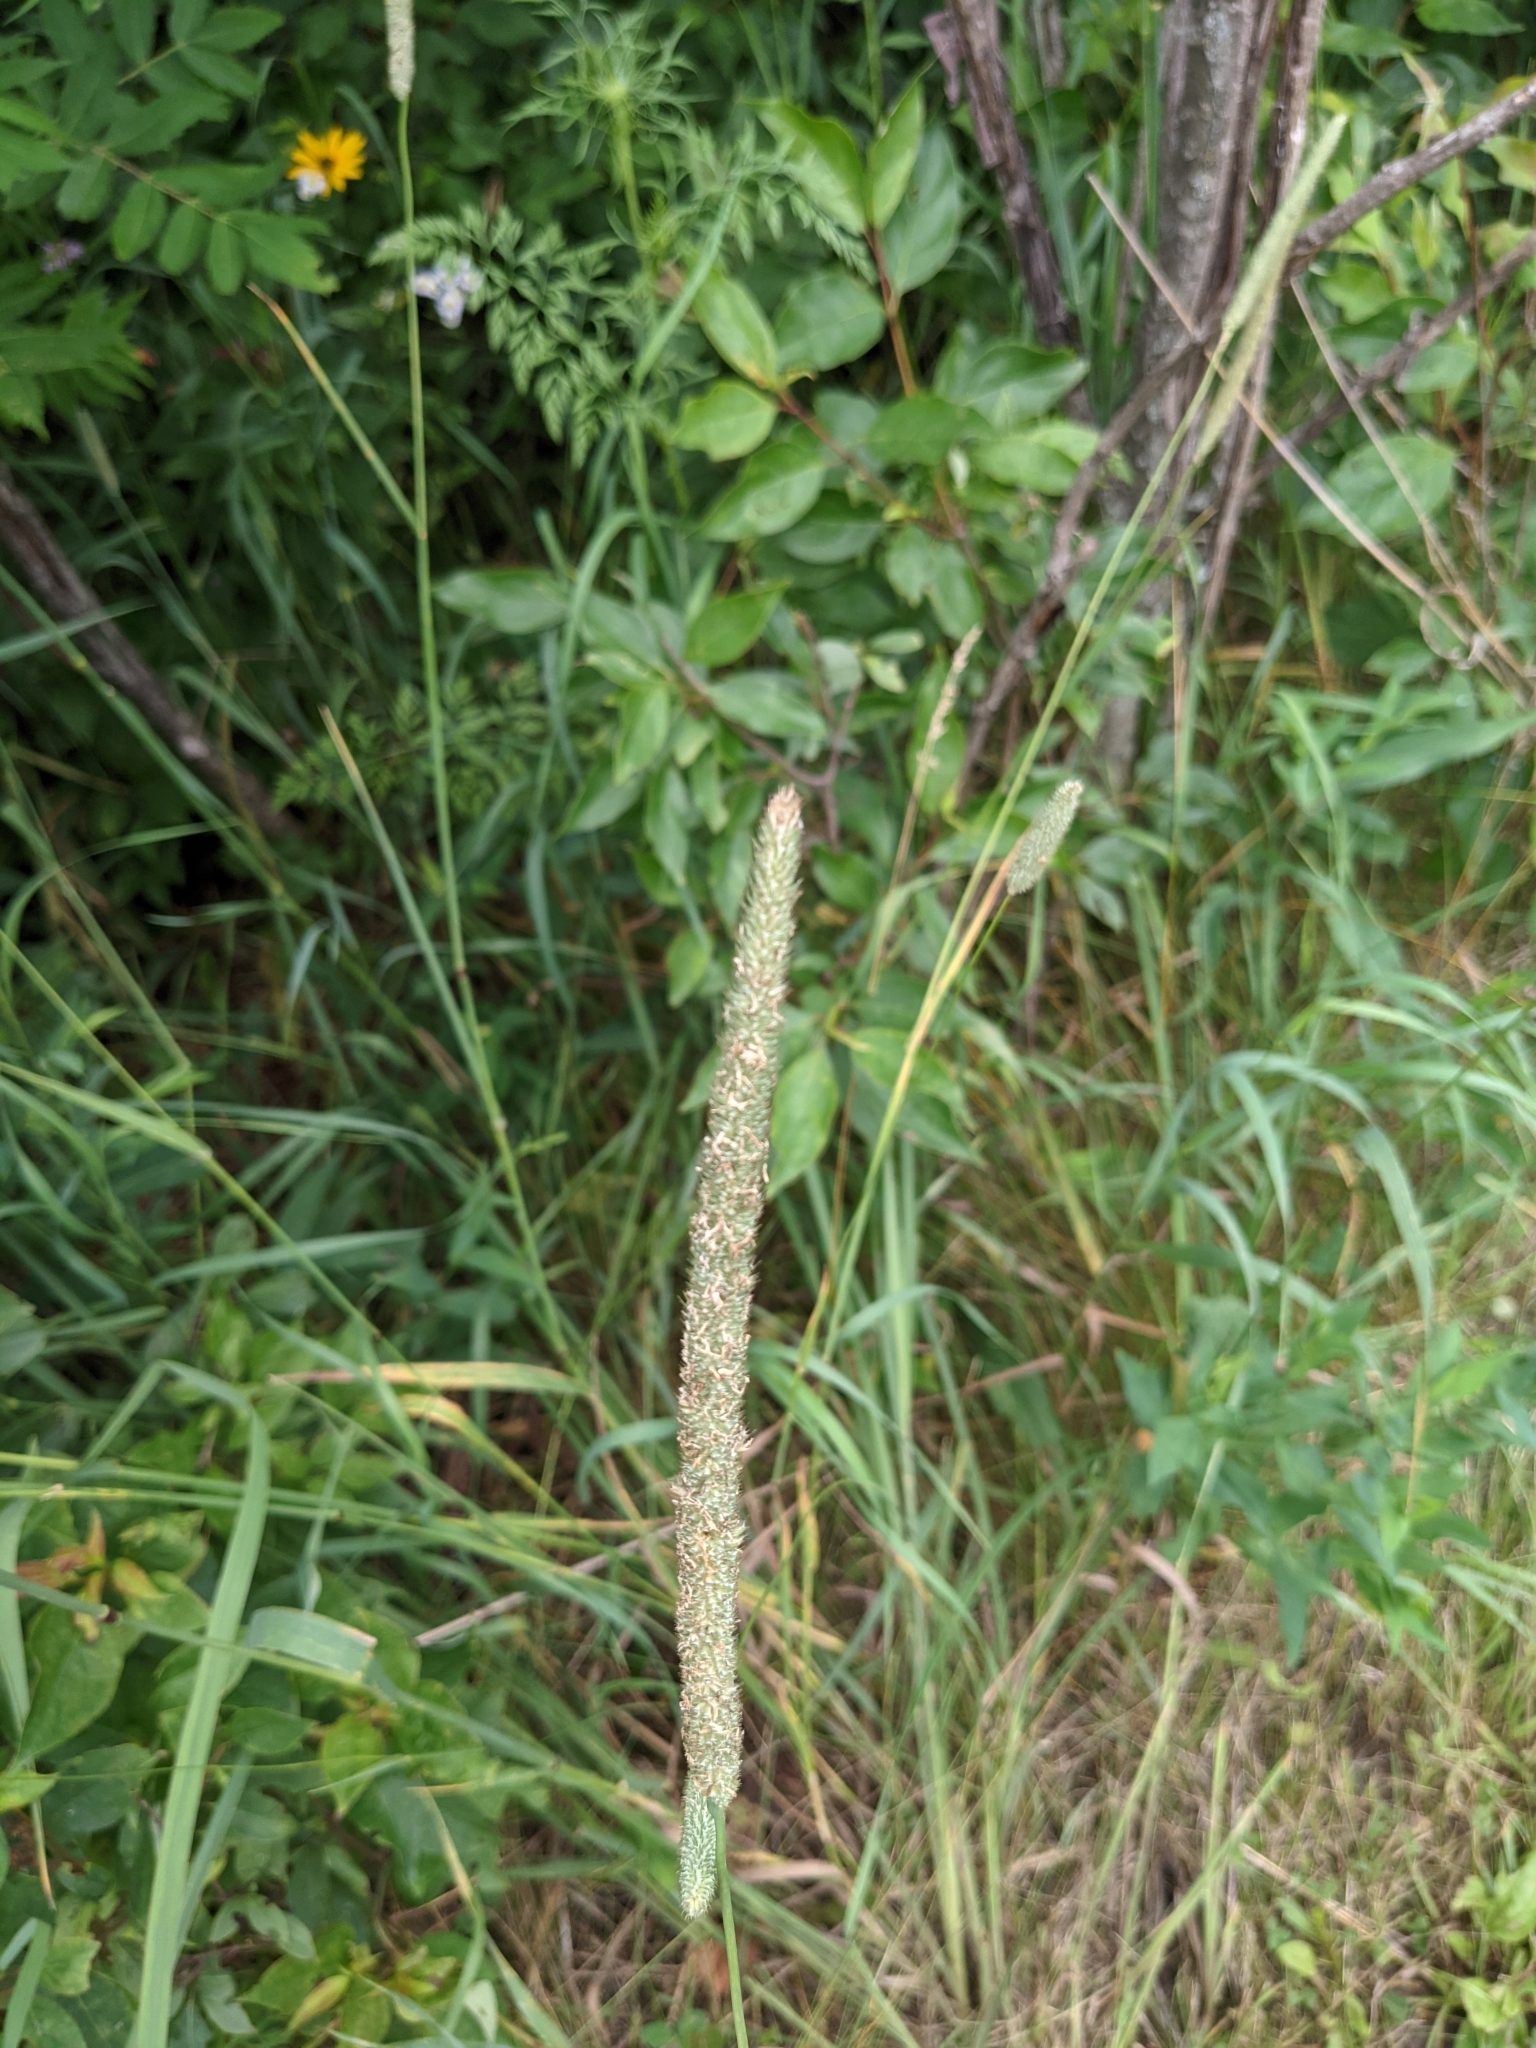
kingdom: Plantae
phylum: Tracheophyta
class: Liliopsida
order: Poales
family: Poaceae
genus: Phleum
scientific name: Phleum pratense
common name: Timothy grass
